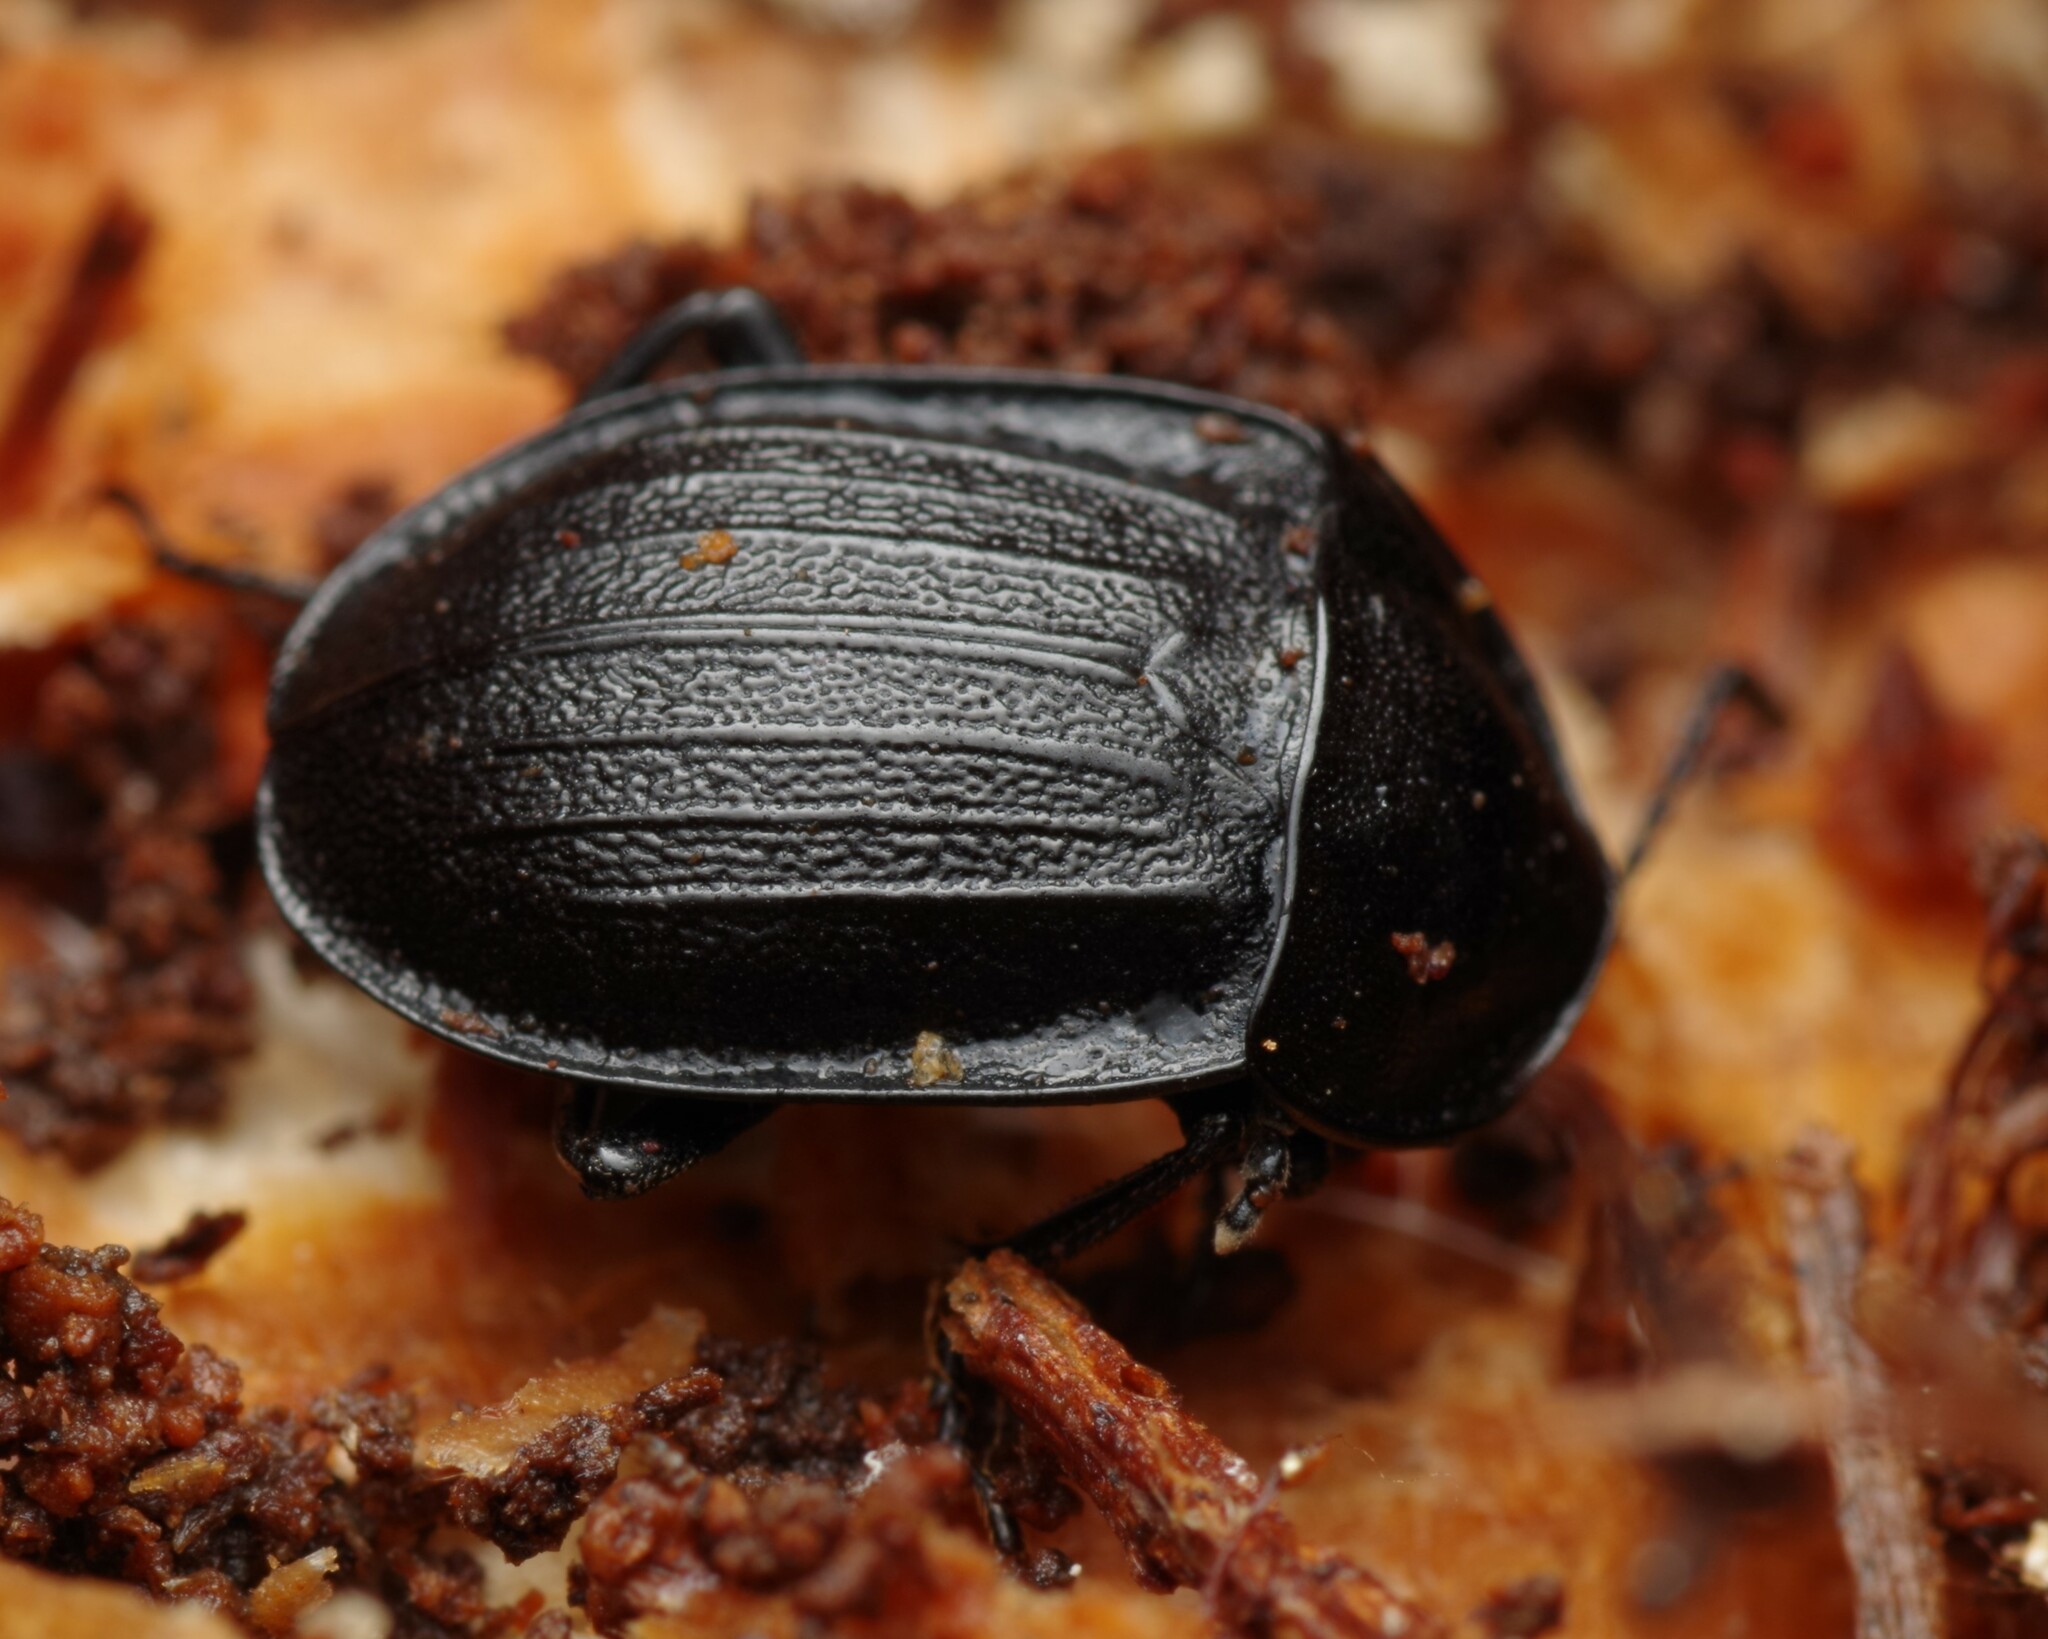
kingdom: Animalia
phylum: Arthropoda
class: Insecta
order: Coleoptera
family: Staphylinidae
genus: Silpha
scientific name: Silpha atrata
